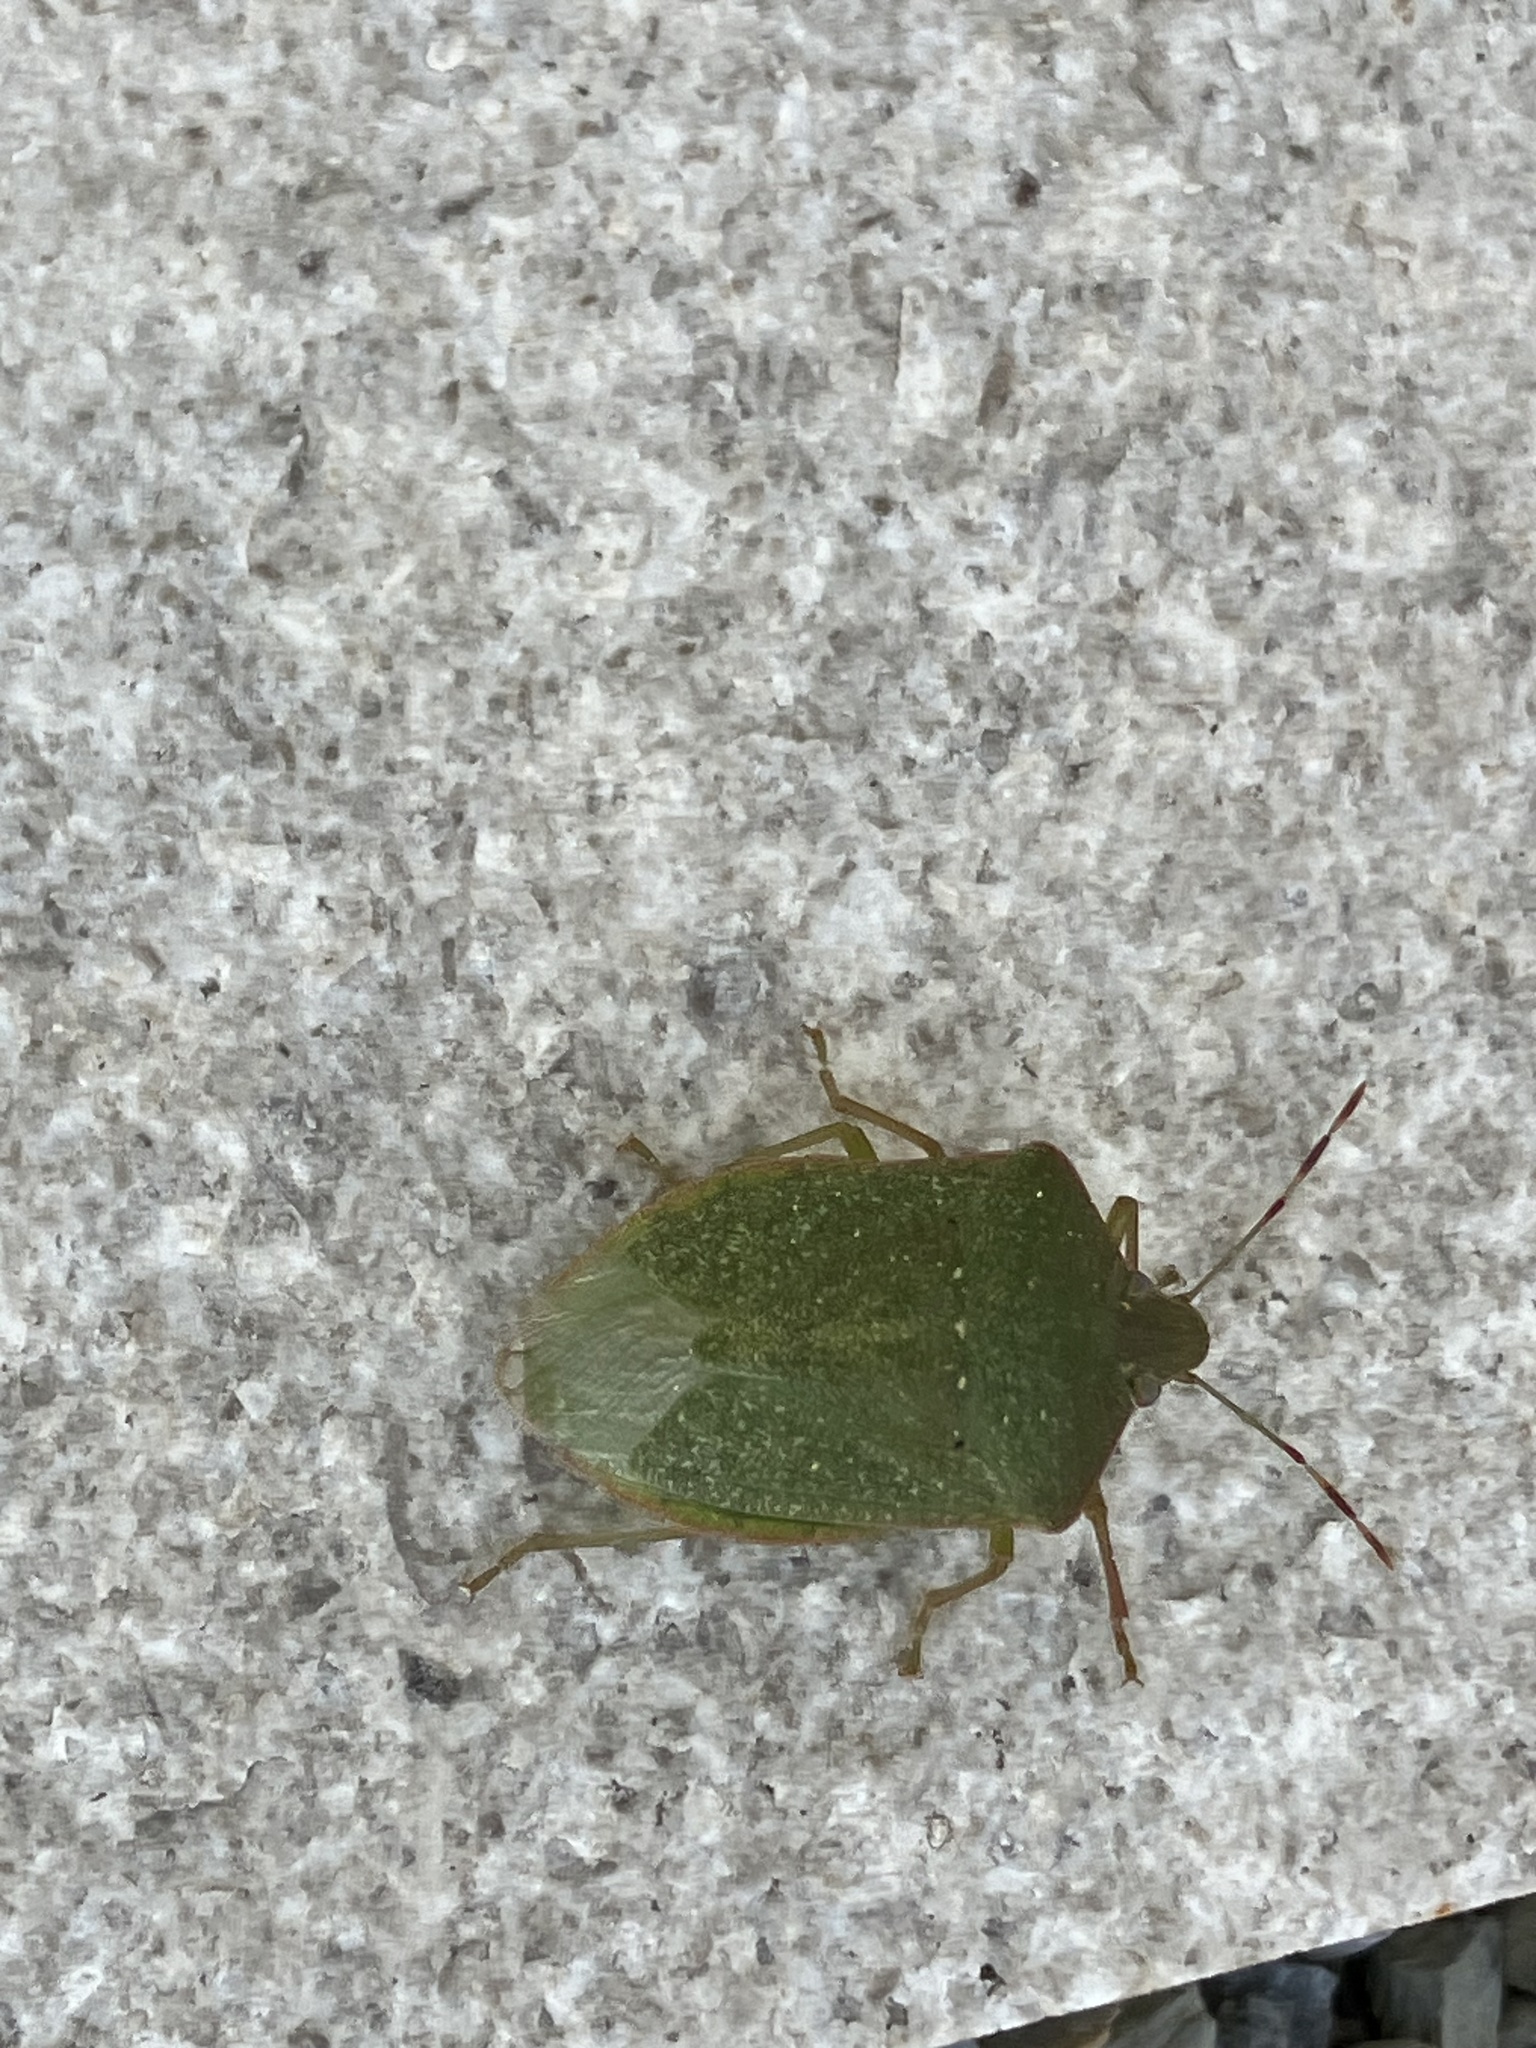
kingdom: Animalia
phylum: Arthropoda
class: Insecta
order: Hemiptera
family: Pentatomidae
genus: Nezara
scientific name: Nezara viridula
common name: Southern green stink bug
